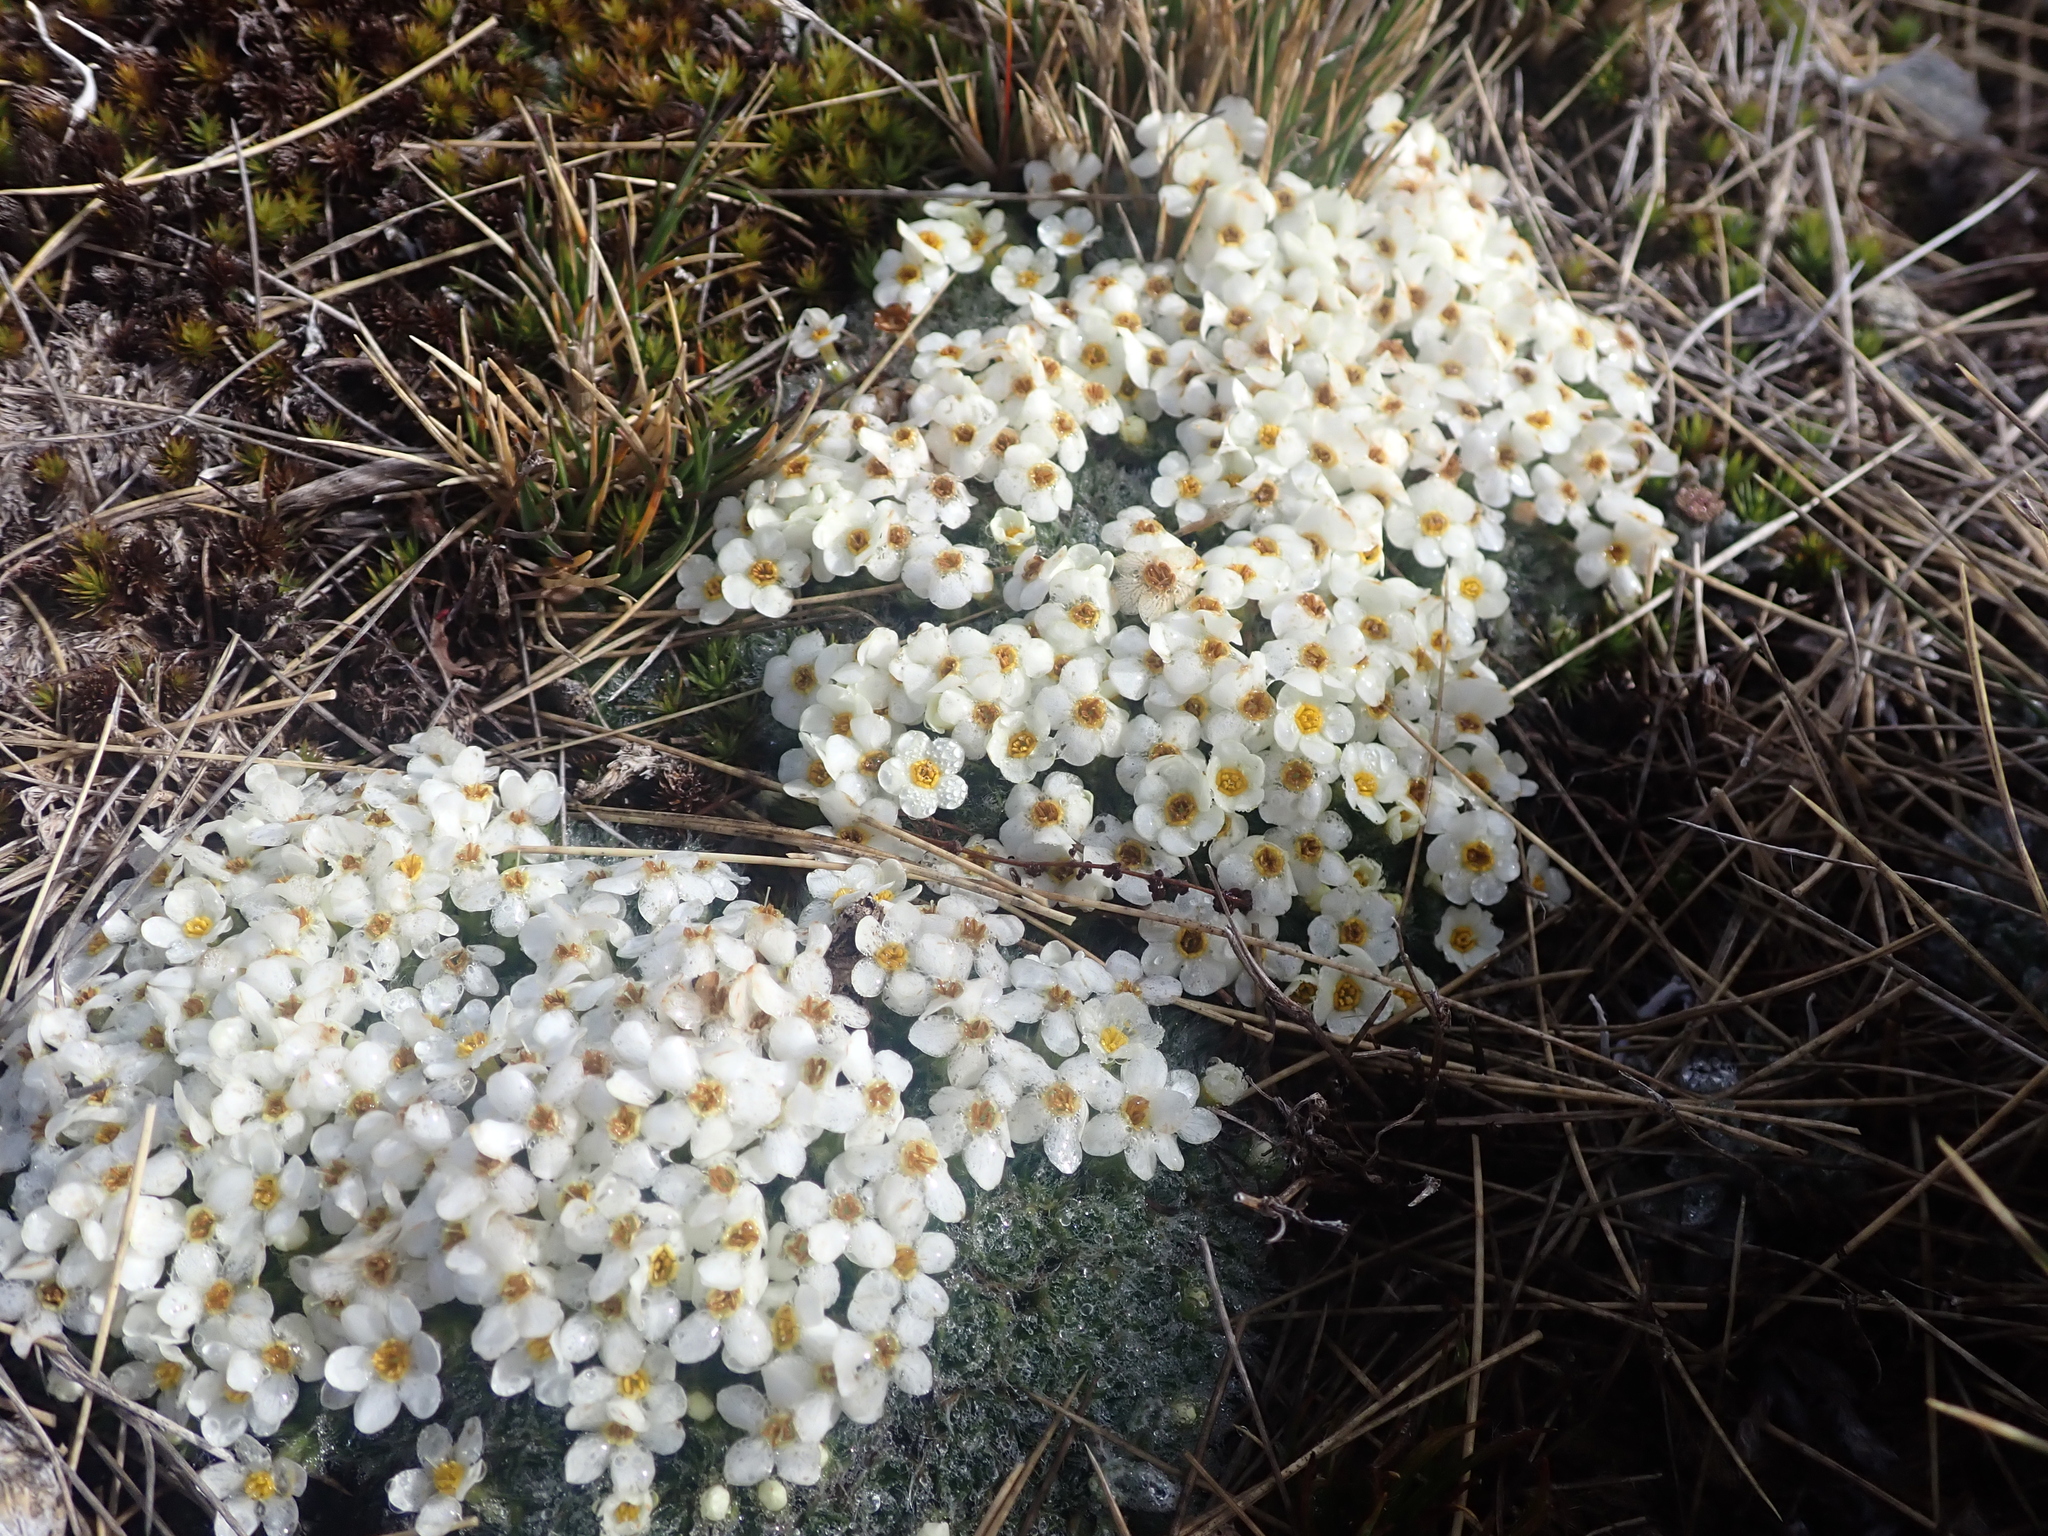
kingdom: Plantae
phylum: Tracheophyta
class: Magnoliopsida
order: Boraginales
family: Boraginaceae
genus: Myosotis
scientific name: Myosotis pulvinaris
